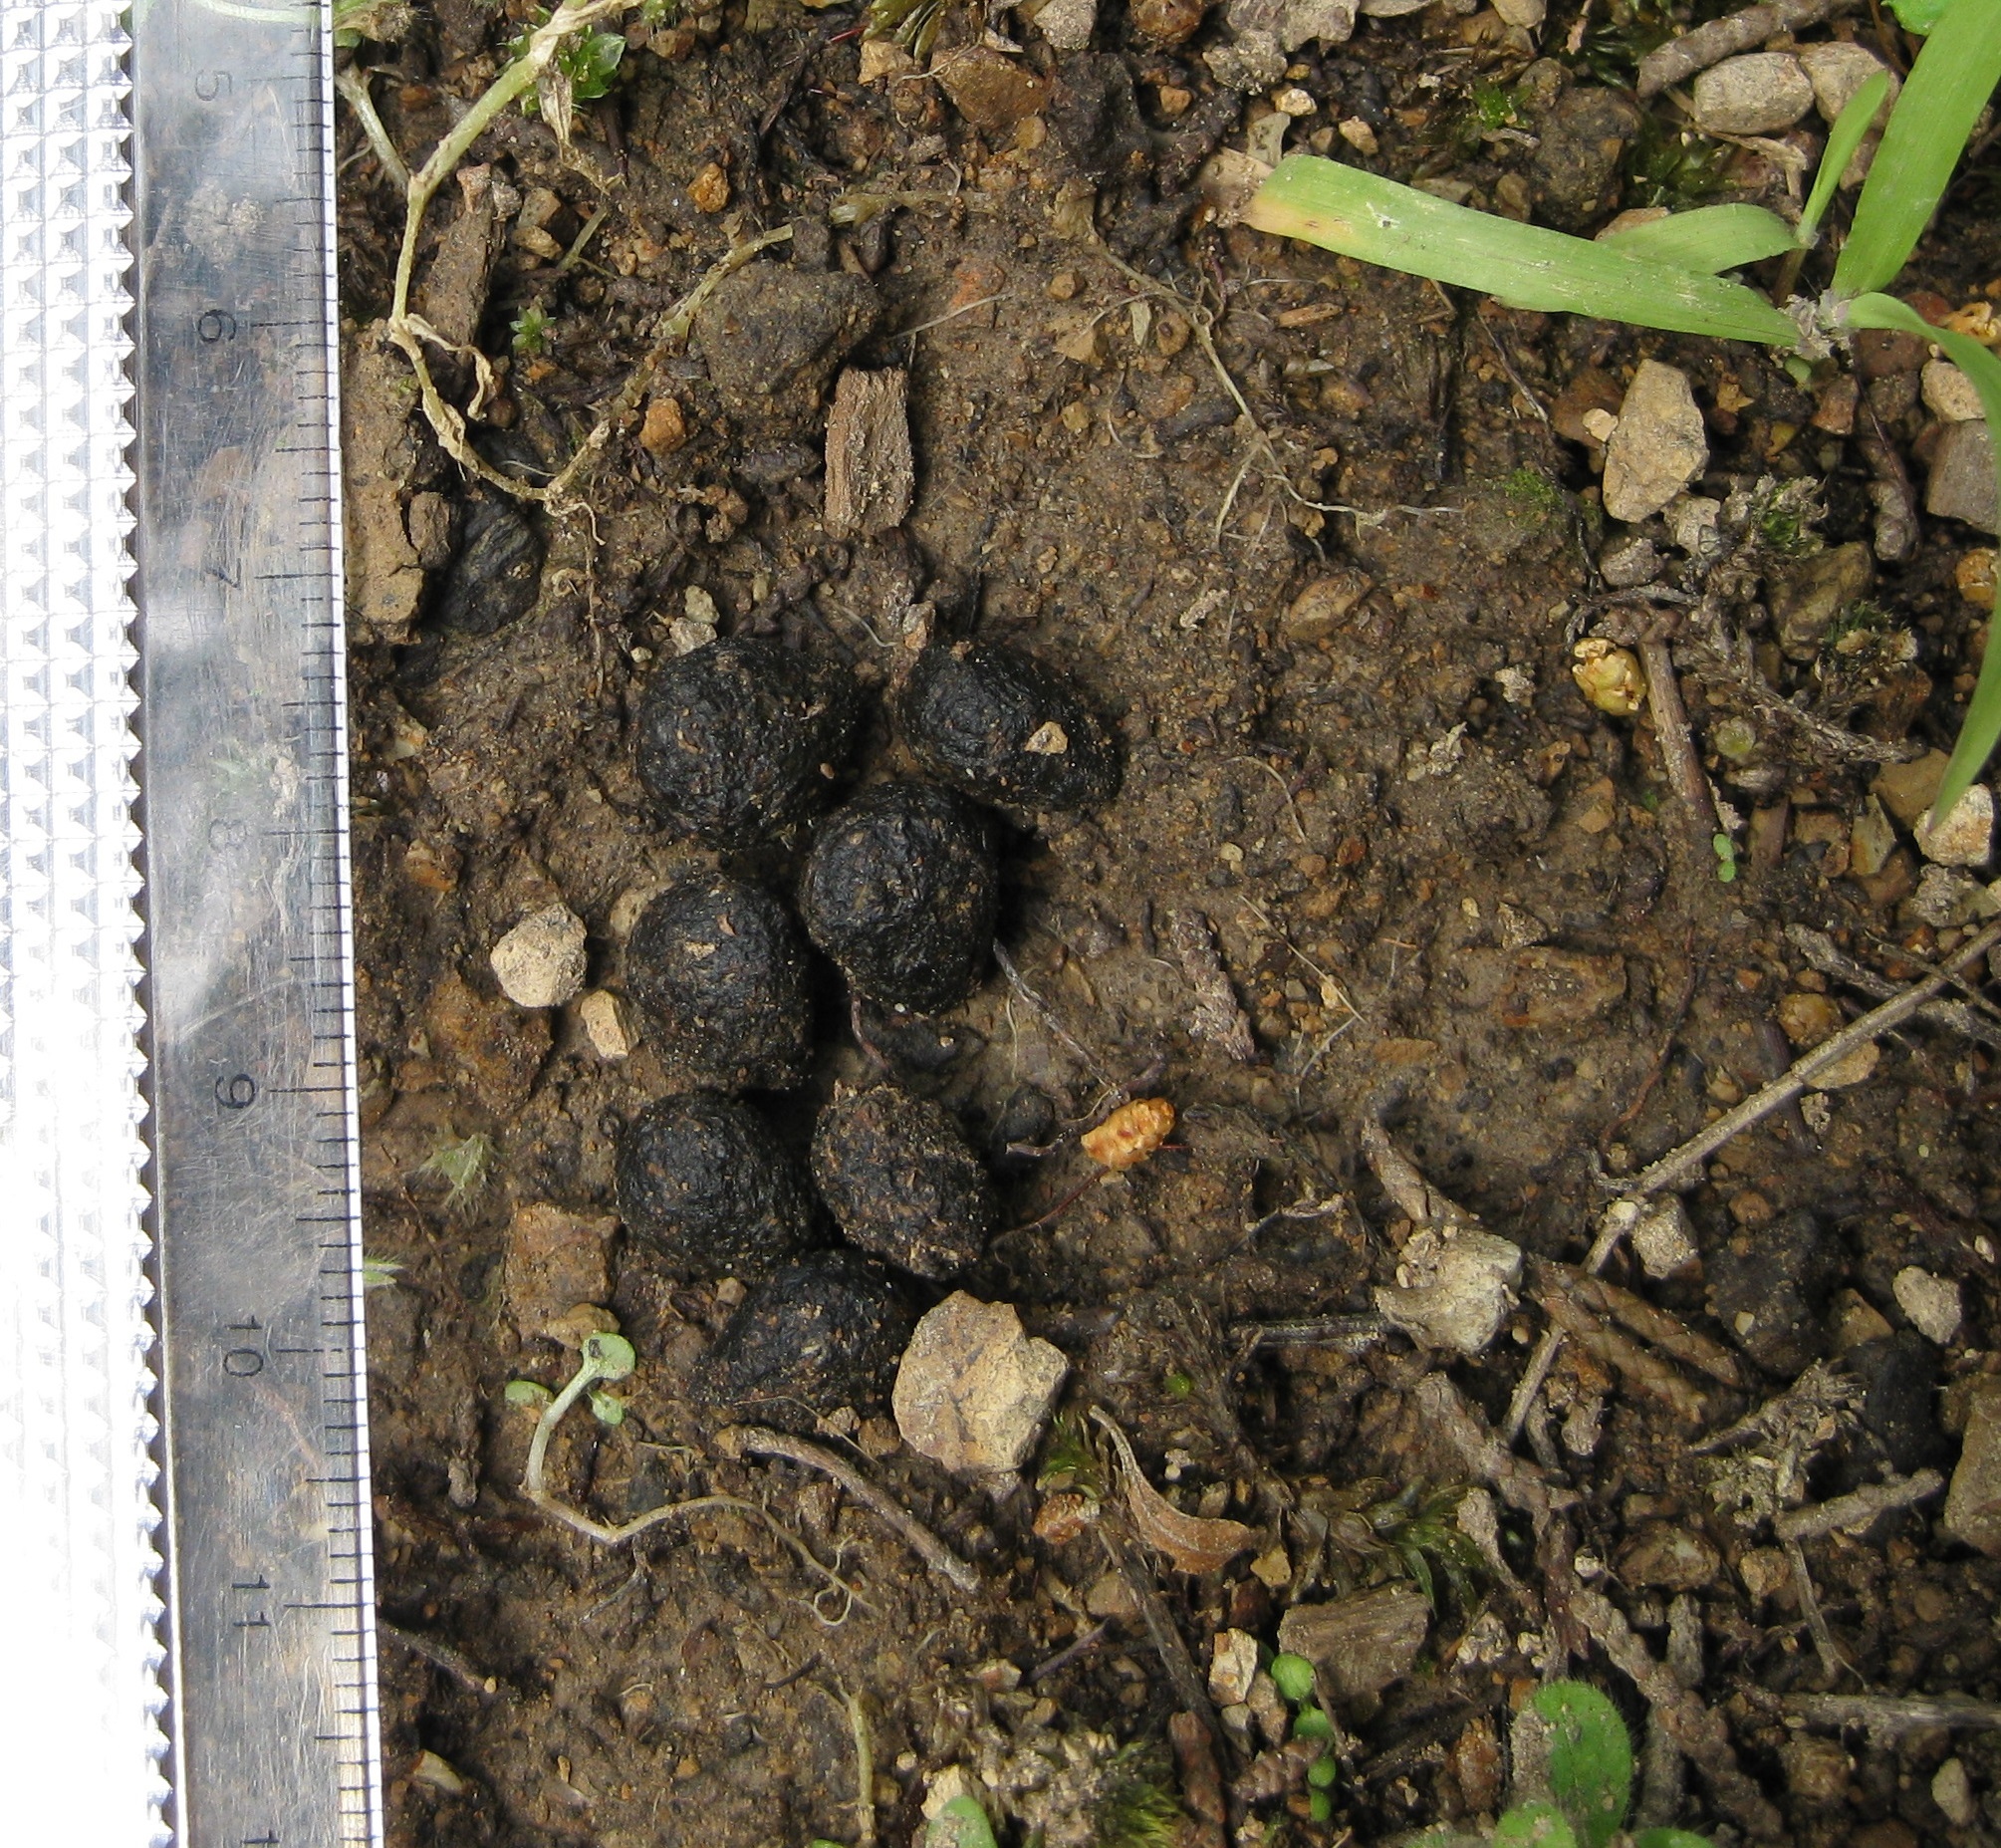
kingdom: Animalia
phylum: Chordata
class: Mammalia
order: Lagomorpha
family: Leporidae
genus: Oryctolagus
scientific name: Oryctolagus cuniculus
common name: European rabbit
